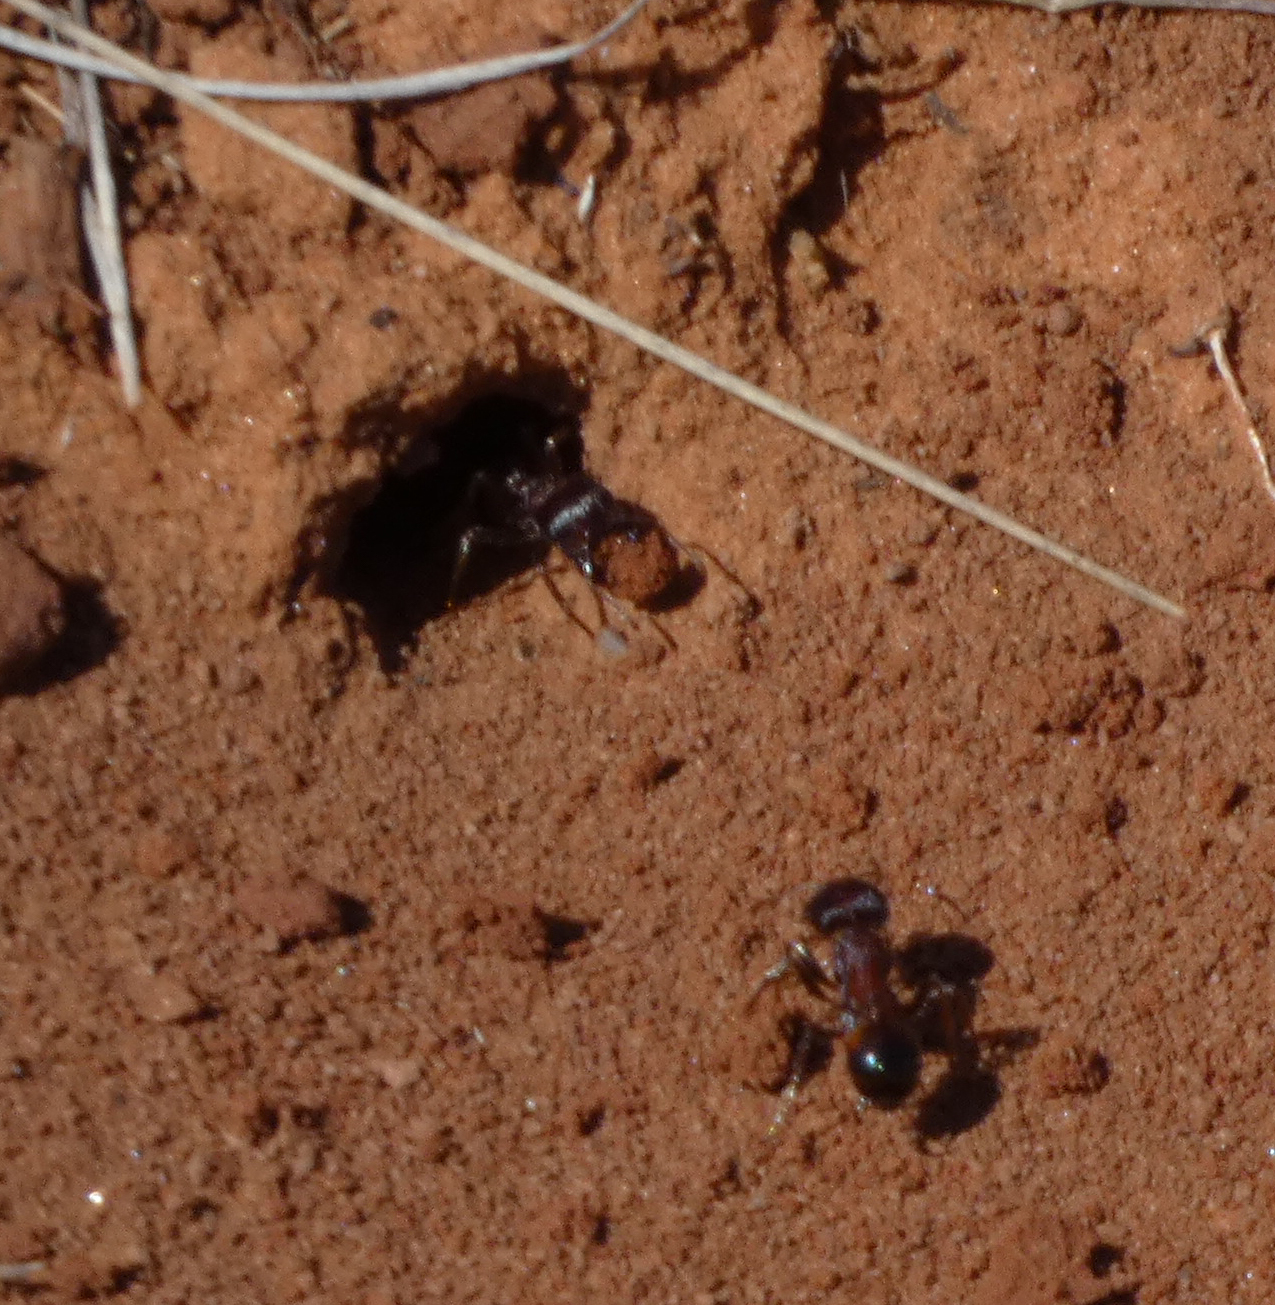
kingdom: Animalia
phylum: Arthropoda
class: Insecta
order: Hymenoptera
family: Formicidae
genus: Pogonomyrmex
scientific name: Pogonomyrmex rugosus
